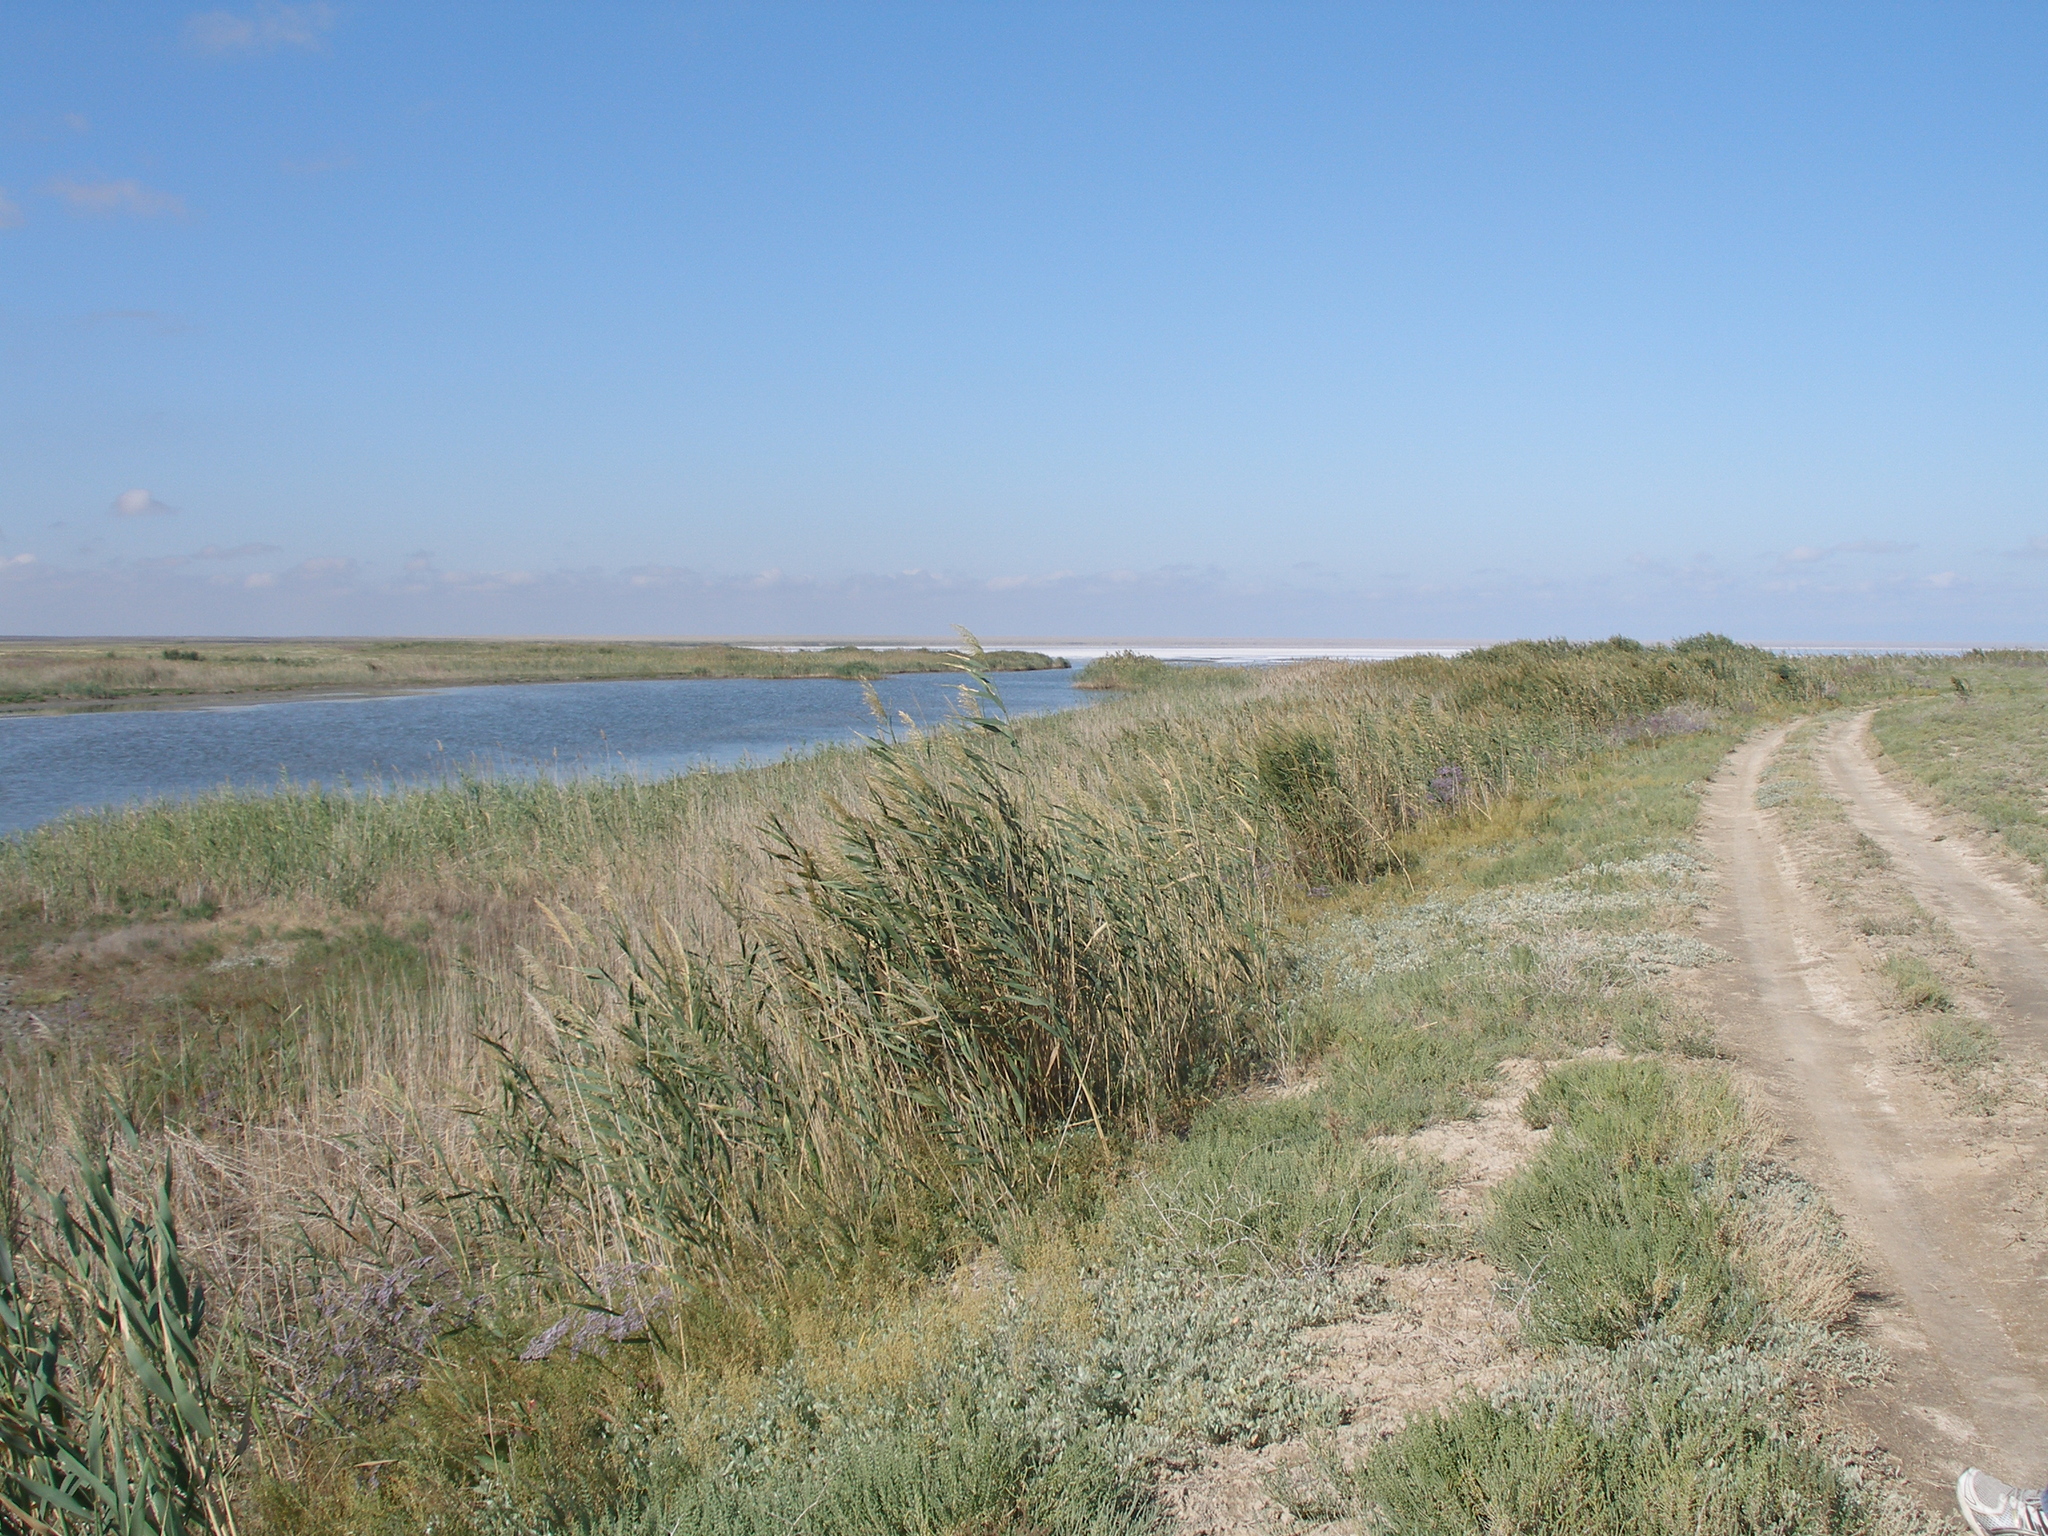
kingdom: Plantae
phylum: Tracheophyta
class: Liliopsida
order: Poales
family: Poaceae
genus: Phragmites
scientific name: Phragmites australis
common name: Common reed
